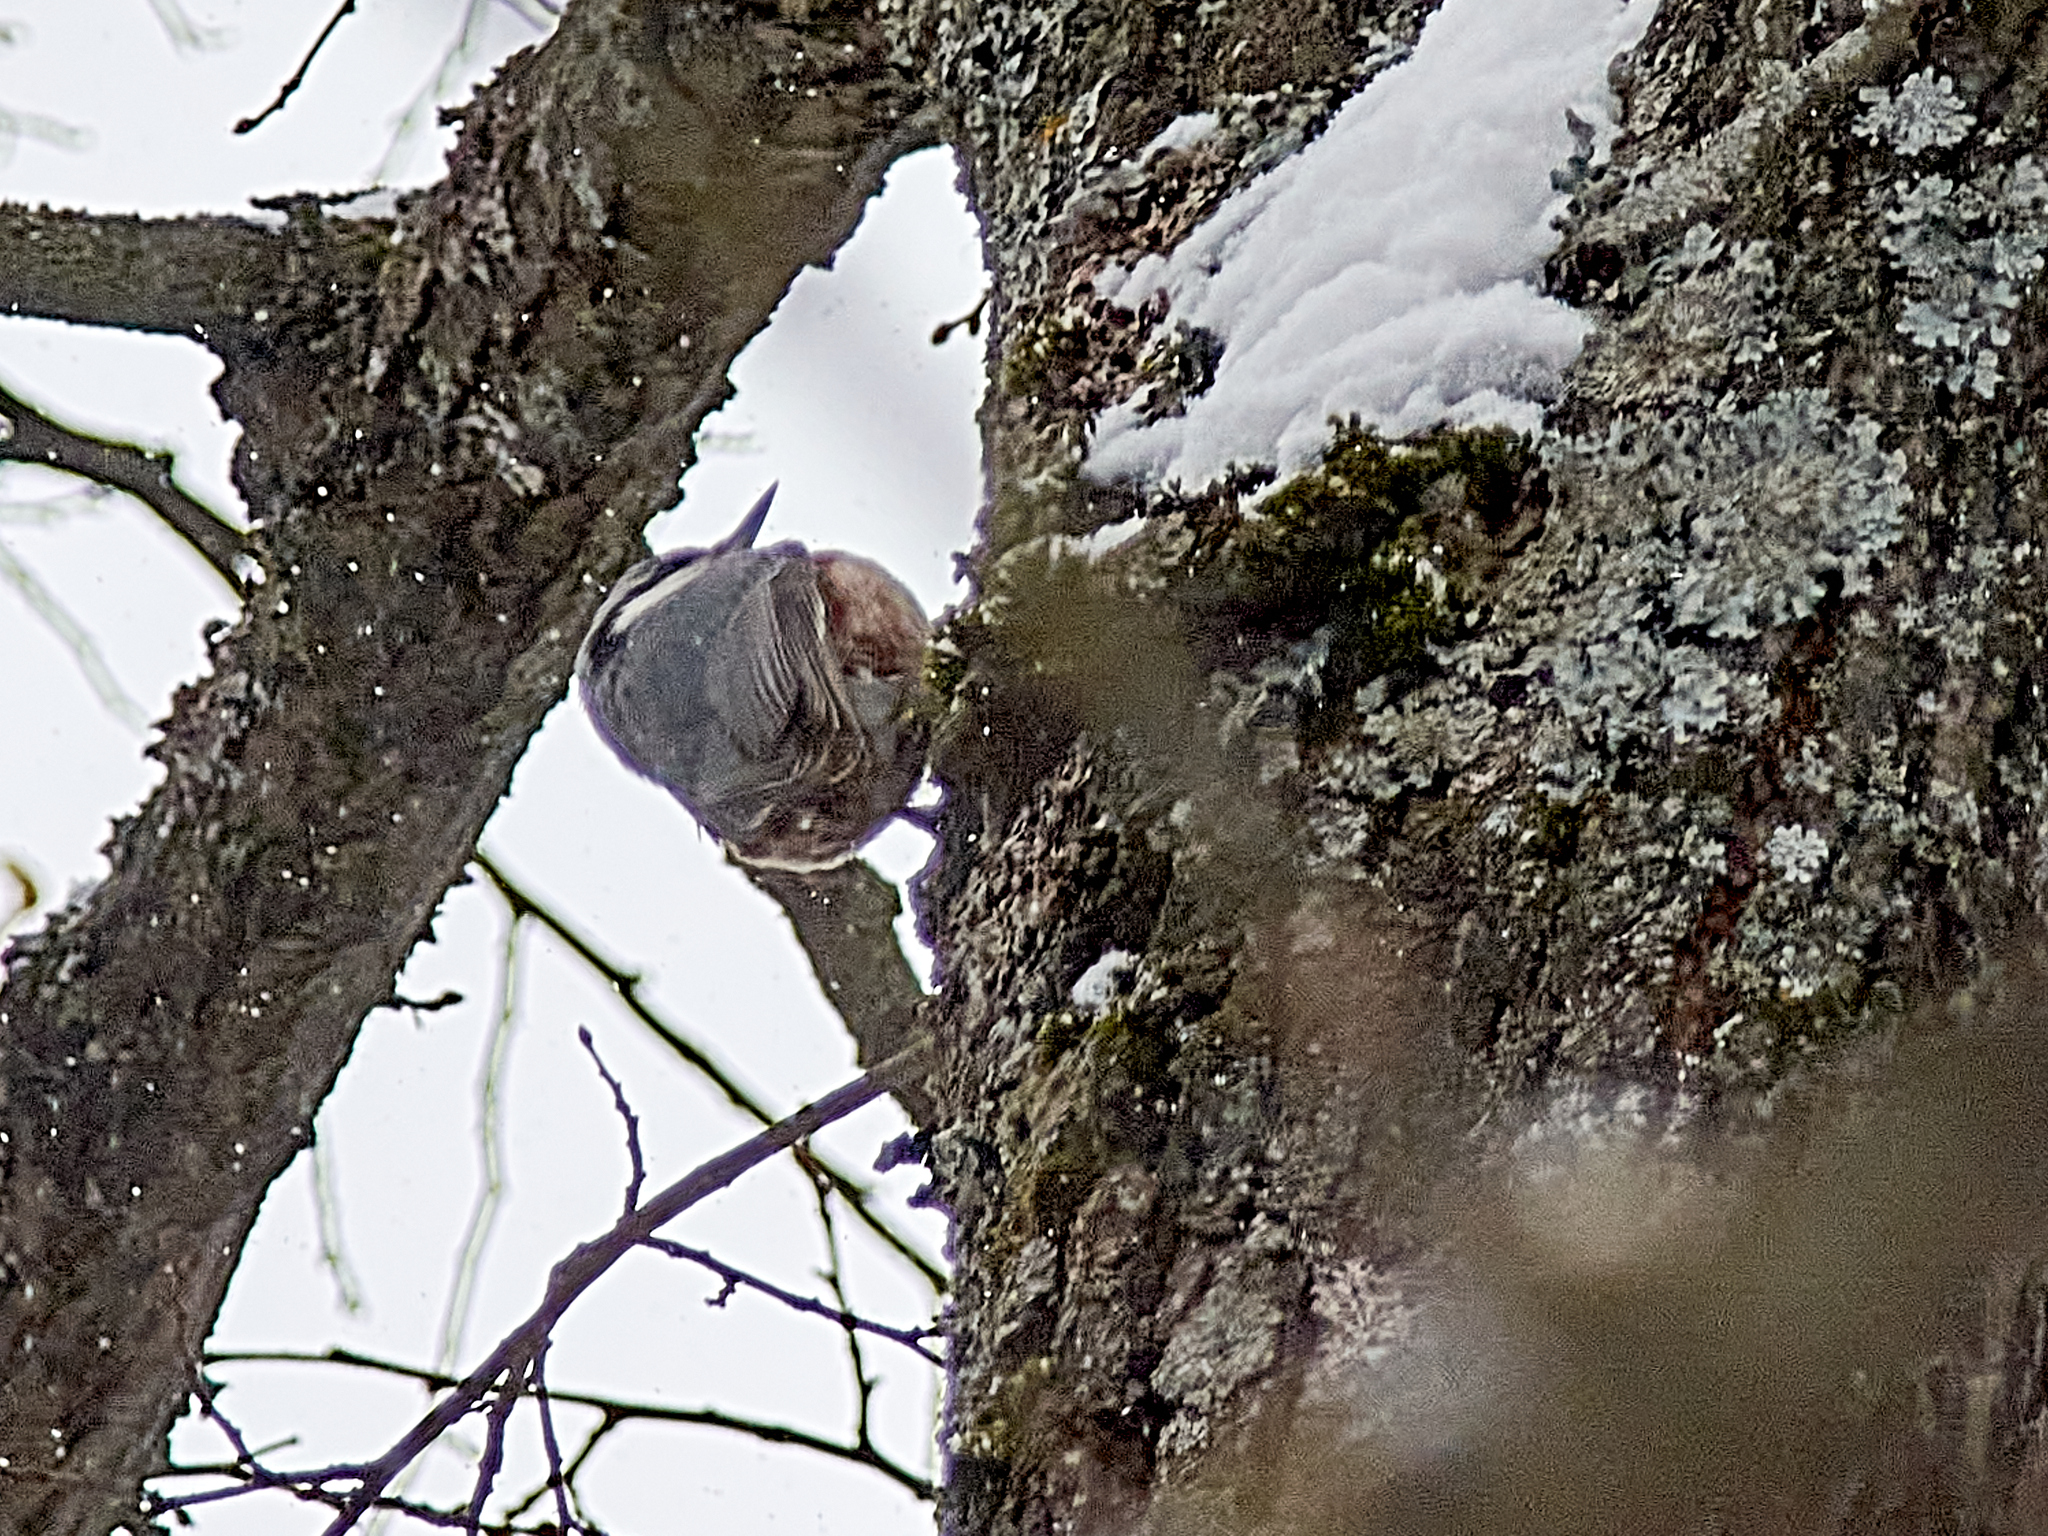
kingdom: Animalia
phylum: Chordata
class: Aves
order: Passeriformes
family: Sittidae
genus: Sitta
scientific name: Sitta europaea
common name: Eurasian nuthatch
